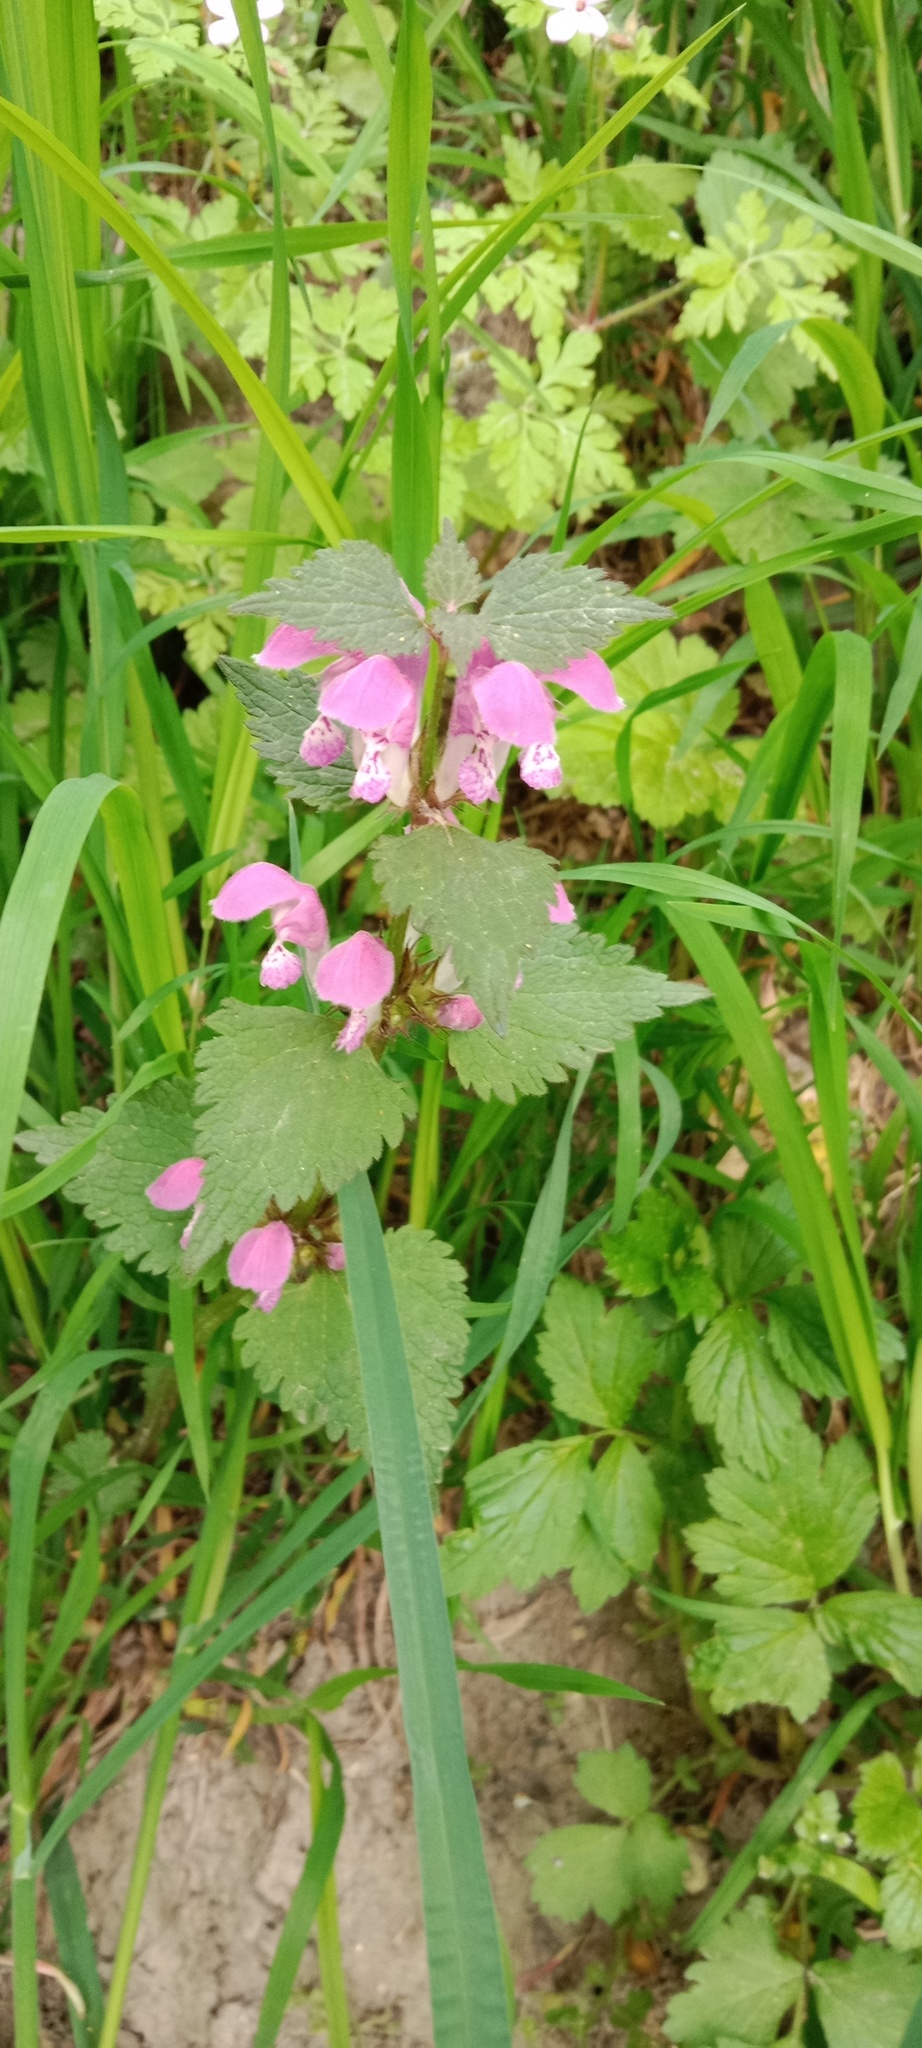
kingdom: Plantae
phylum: Tracheophyta
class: Magnoliopsida
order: Lamiales
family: Lamiaceae
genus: Lamium
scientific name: Lamium maculatum
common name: Spotted dead-nettle
